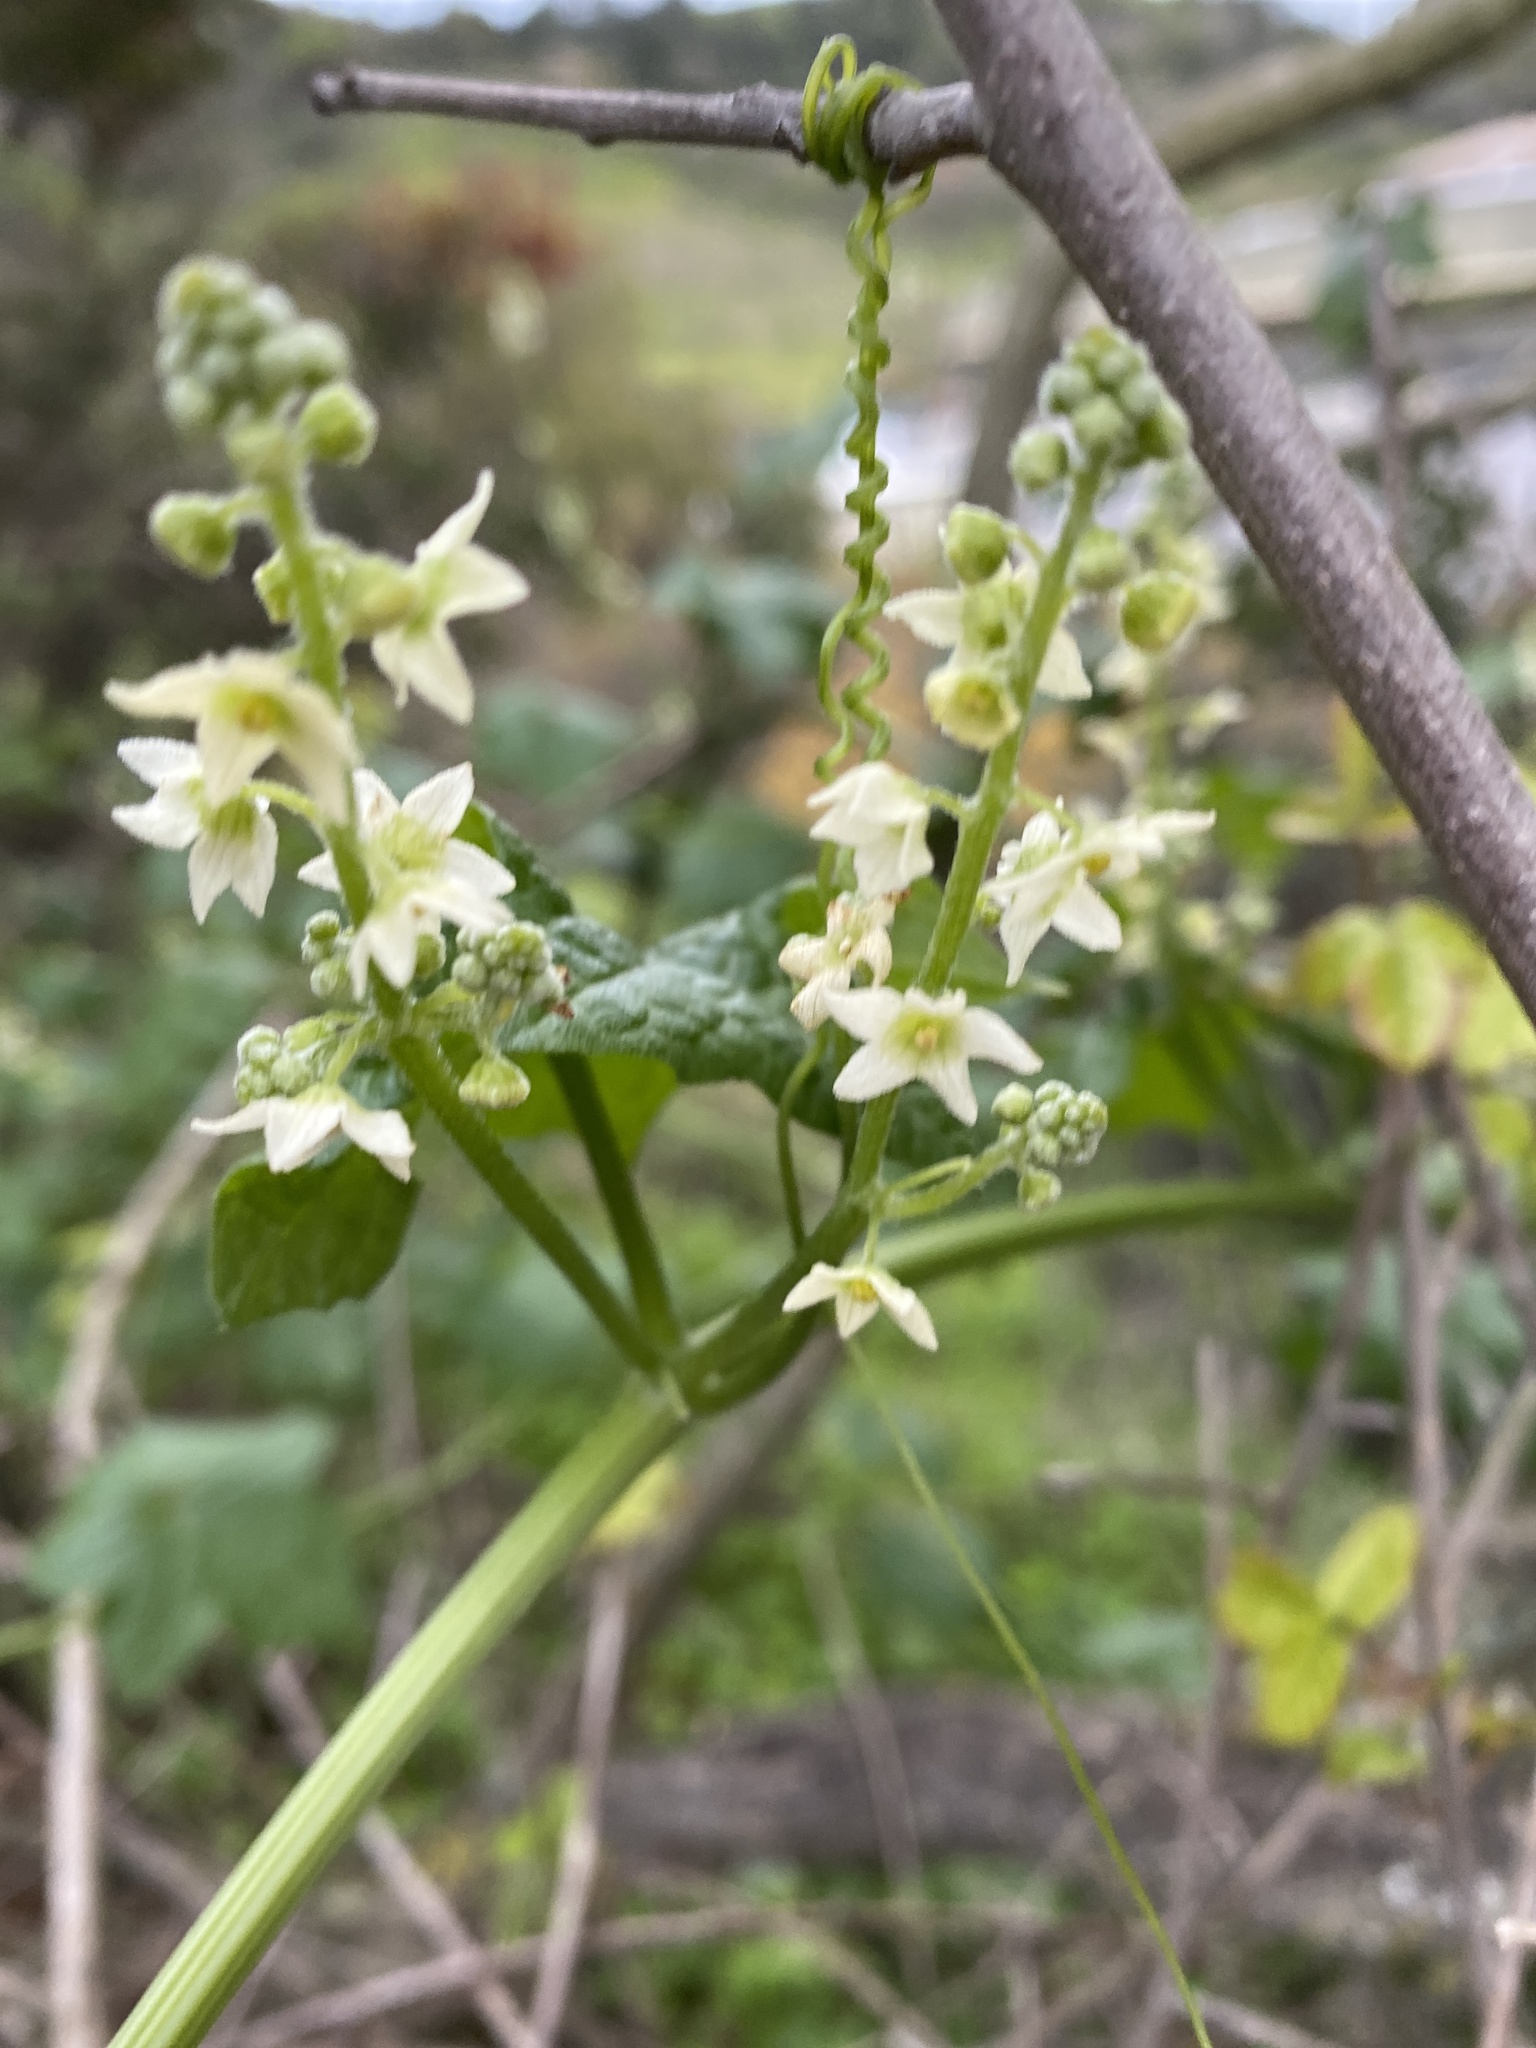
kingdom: Plantae
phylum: Tracheophyta
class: Magnoliopsida
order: Cucurbitales
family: Cucurbitaceae
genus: Marah
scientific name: Marah fabacea
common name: California manroot
